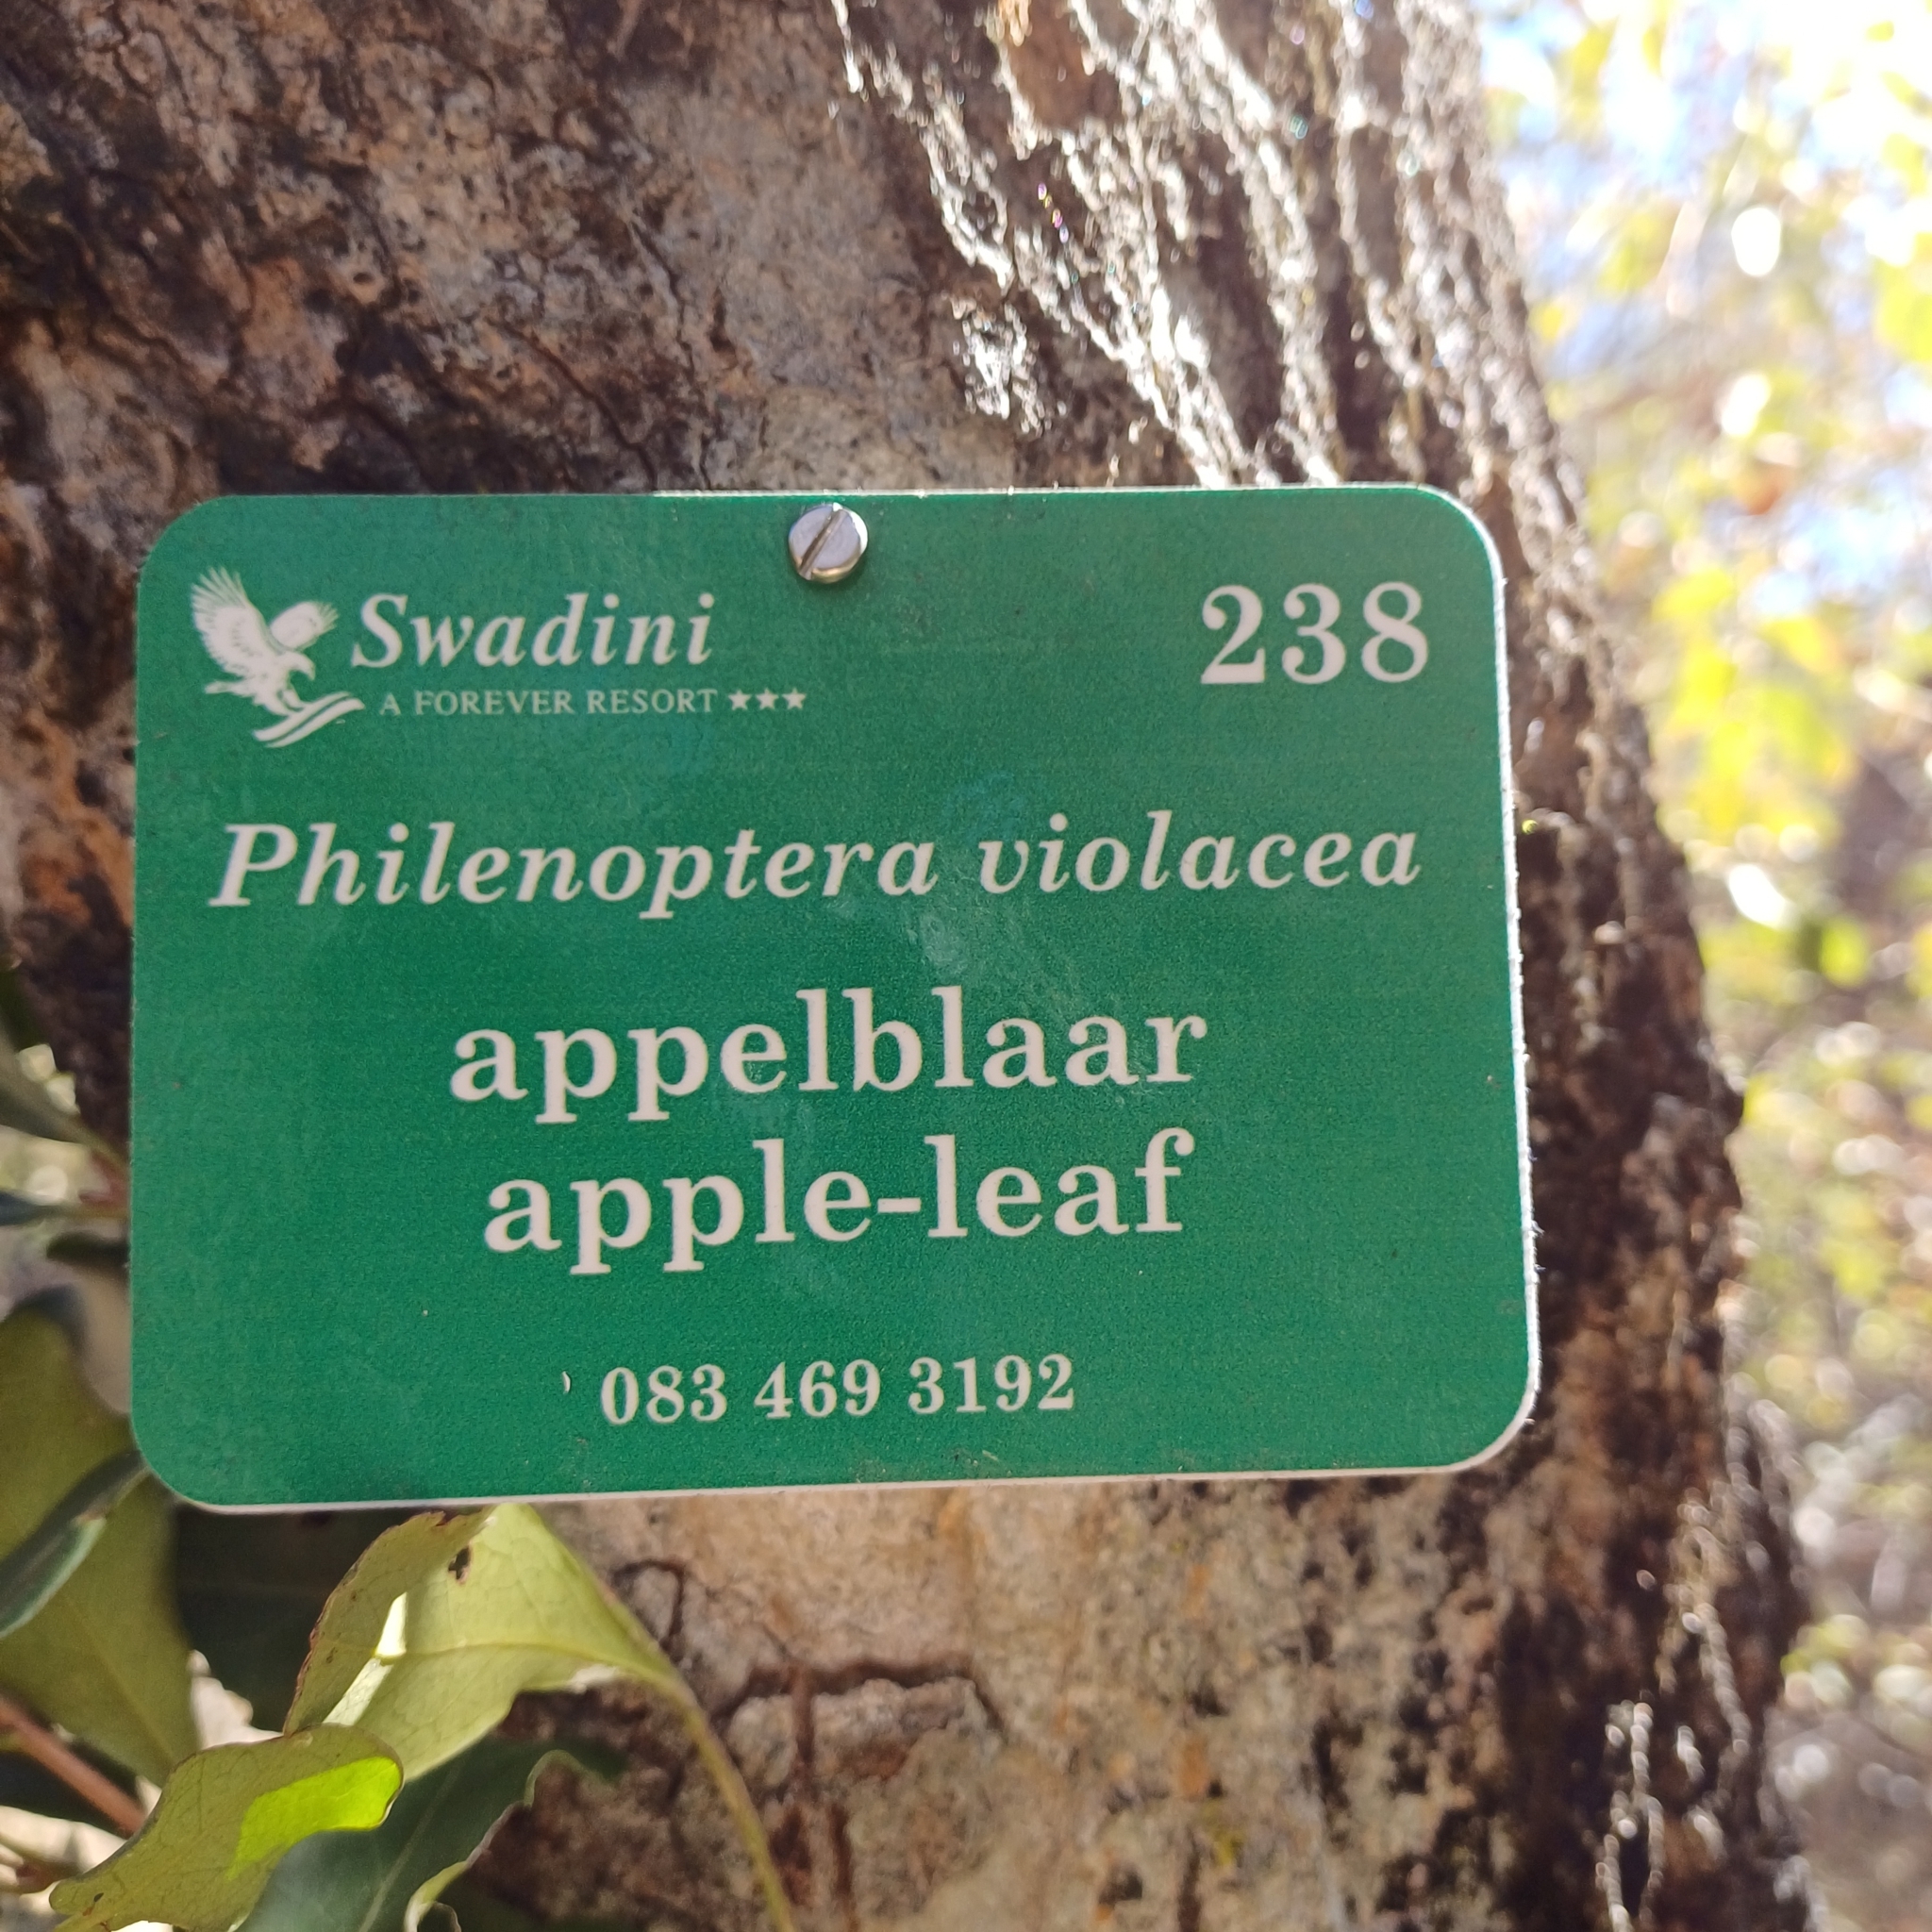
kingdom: Plantae
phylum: Tracheophyta
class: Magnoliopsida
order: Fabales
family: Fabaceae
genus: Philenoptera
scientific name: Philenoptera violacea
